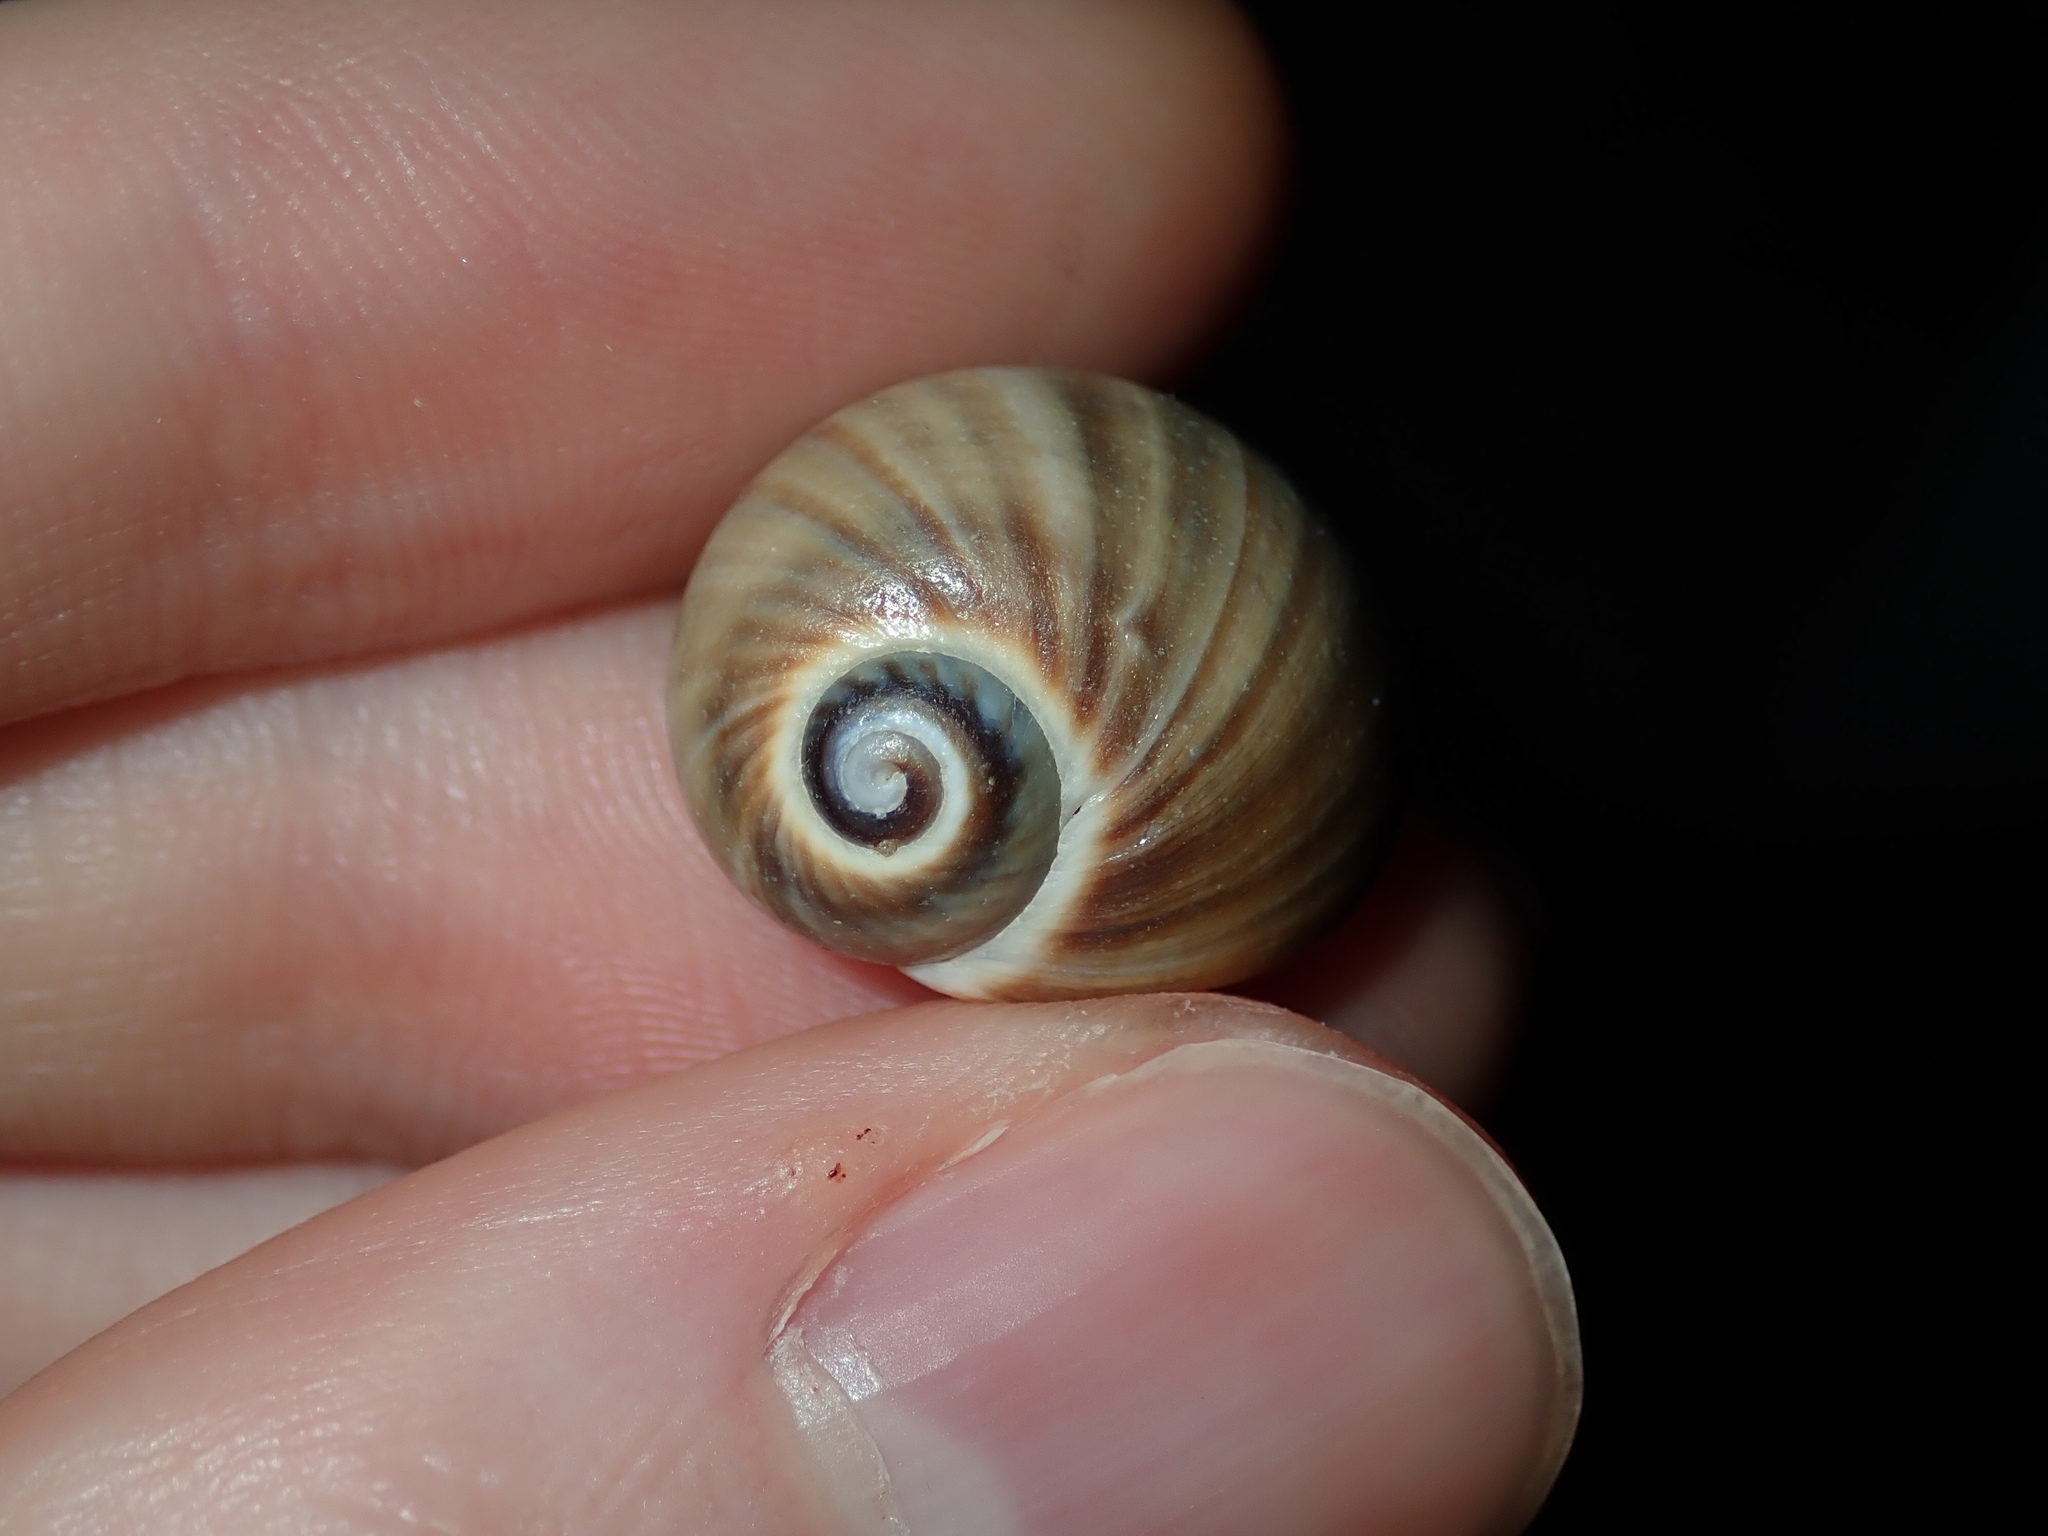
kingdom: Animalia
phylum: Mollusca
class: Gastropoda
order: Littorinimorpha
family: Naticidae
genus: Notocochlis
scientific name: Notocochlis gualteriana
